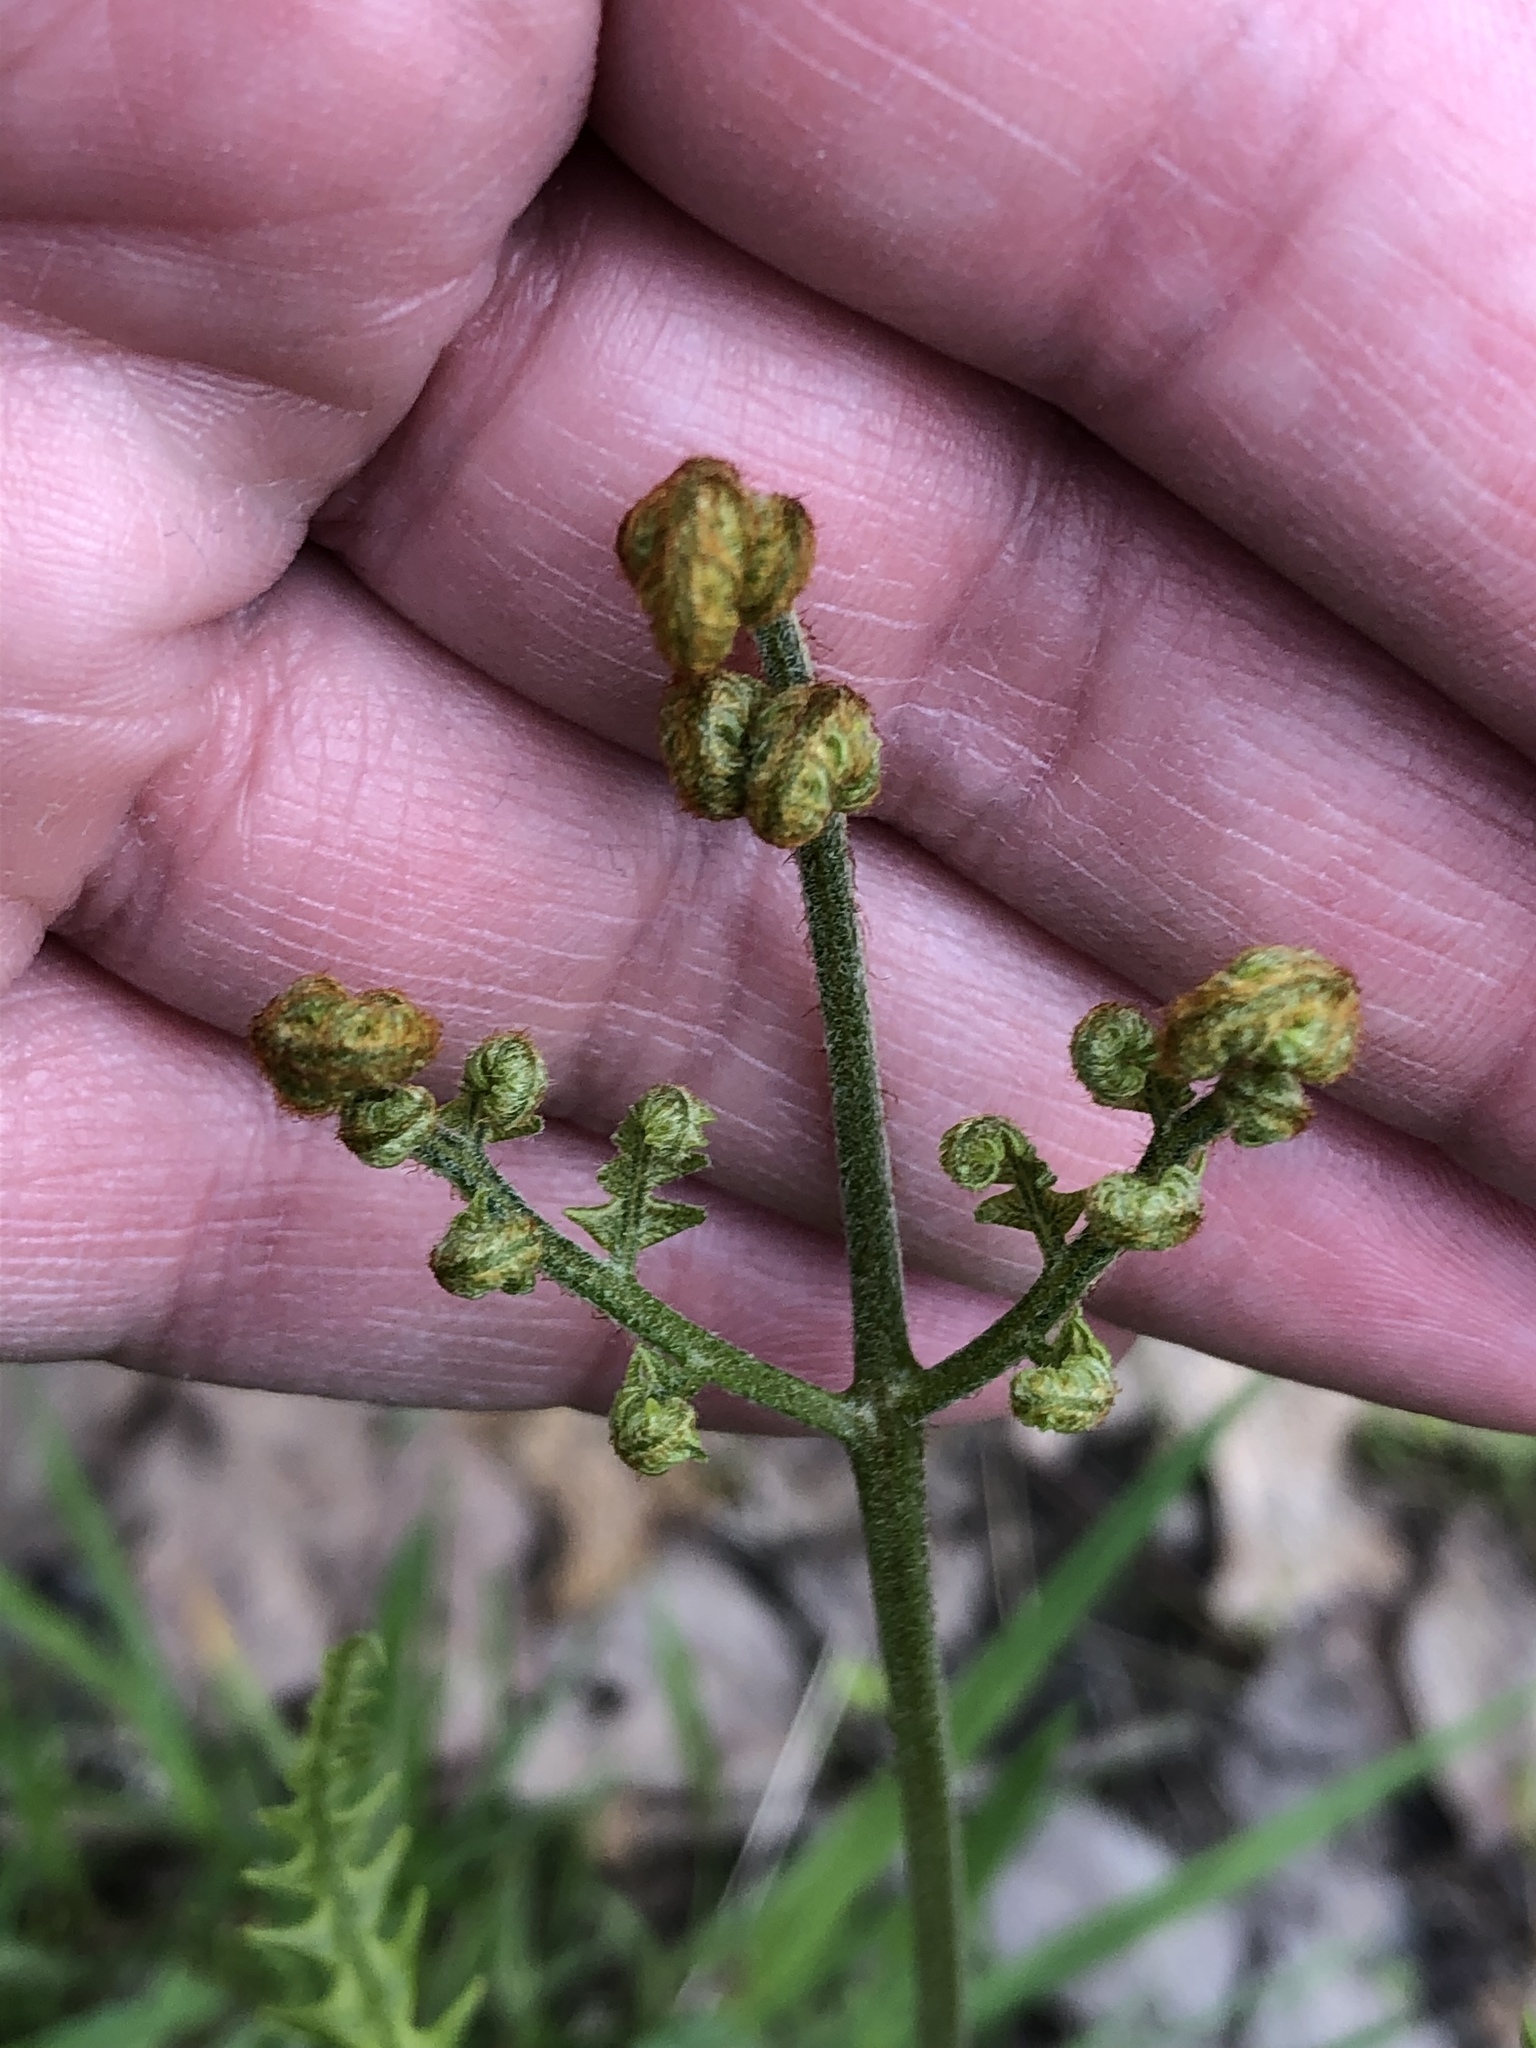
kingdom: Plantae
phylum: Tracheophyta
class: Polypodiopsida
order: Polypodiales
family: Dennstaedtiaceae
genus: Pteridium
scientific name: Pteridium aquilinum
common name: Bracken
